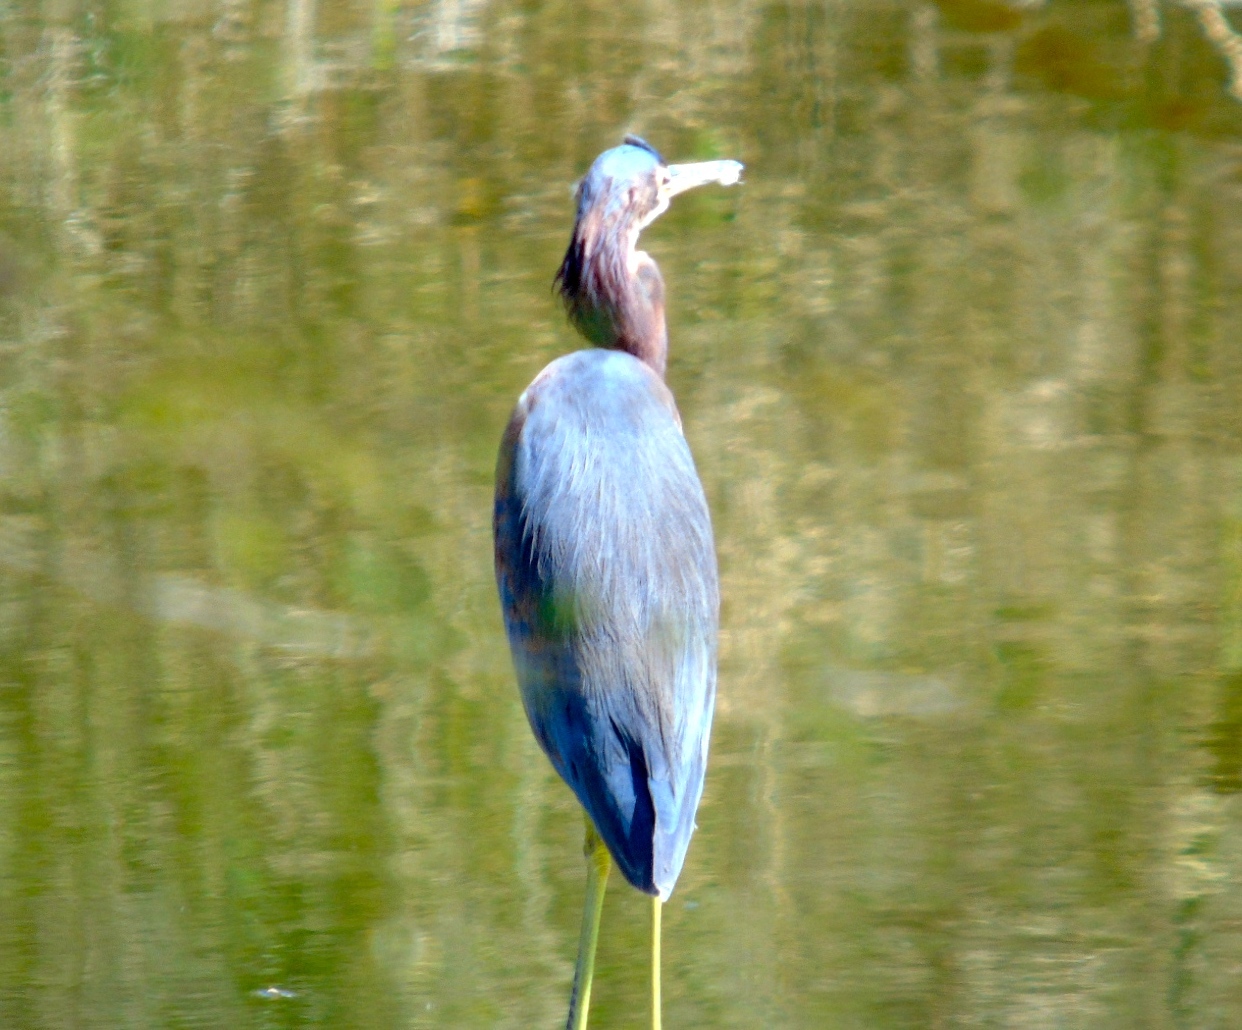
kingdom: Animalia
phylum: Chordata
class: Aves
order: Pelecaniformes
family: Ardeidae
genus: Egretta
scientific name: Egretta tricolor
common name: Tricolored heron
